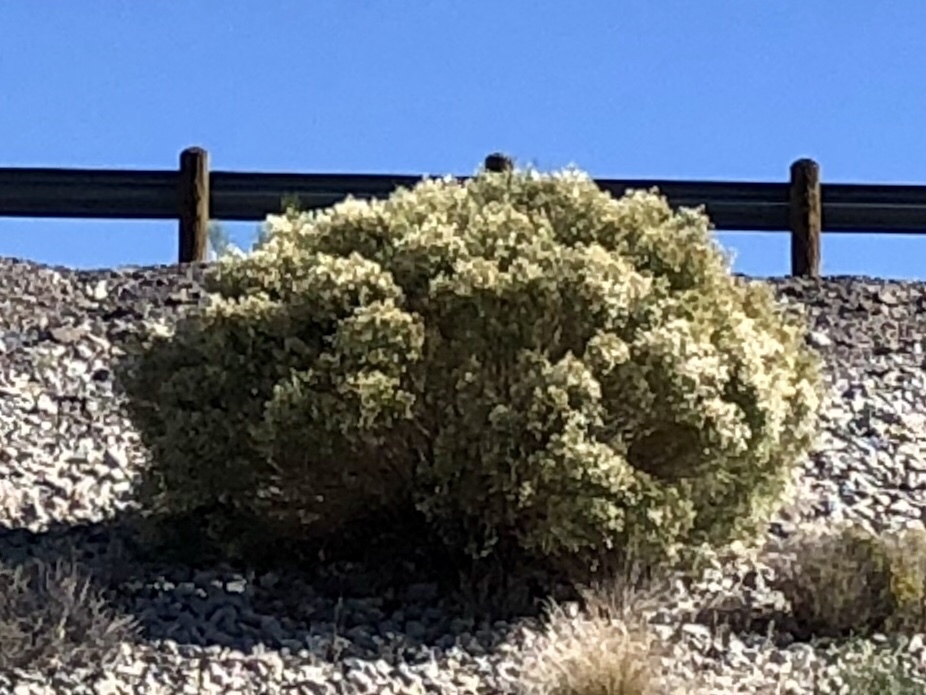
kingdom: Plantae
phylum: Tracheophyta
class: Magnoliopsida
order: Asterales
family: Asteraceae
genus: Baccharis
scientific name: Baccharis sarothroides
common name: Desert-broom
